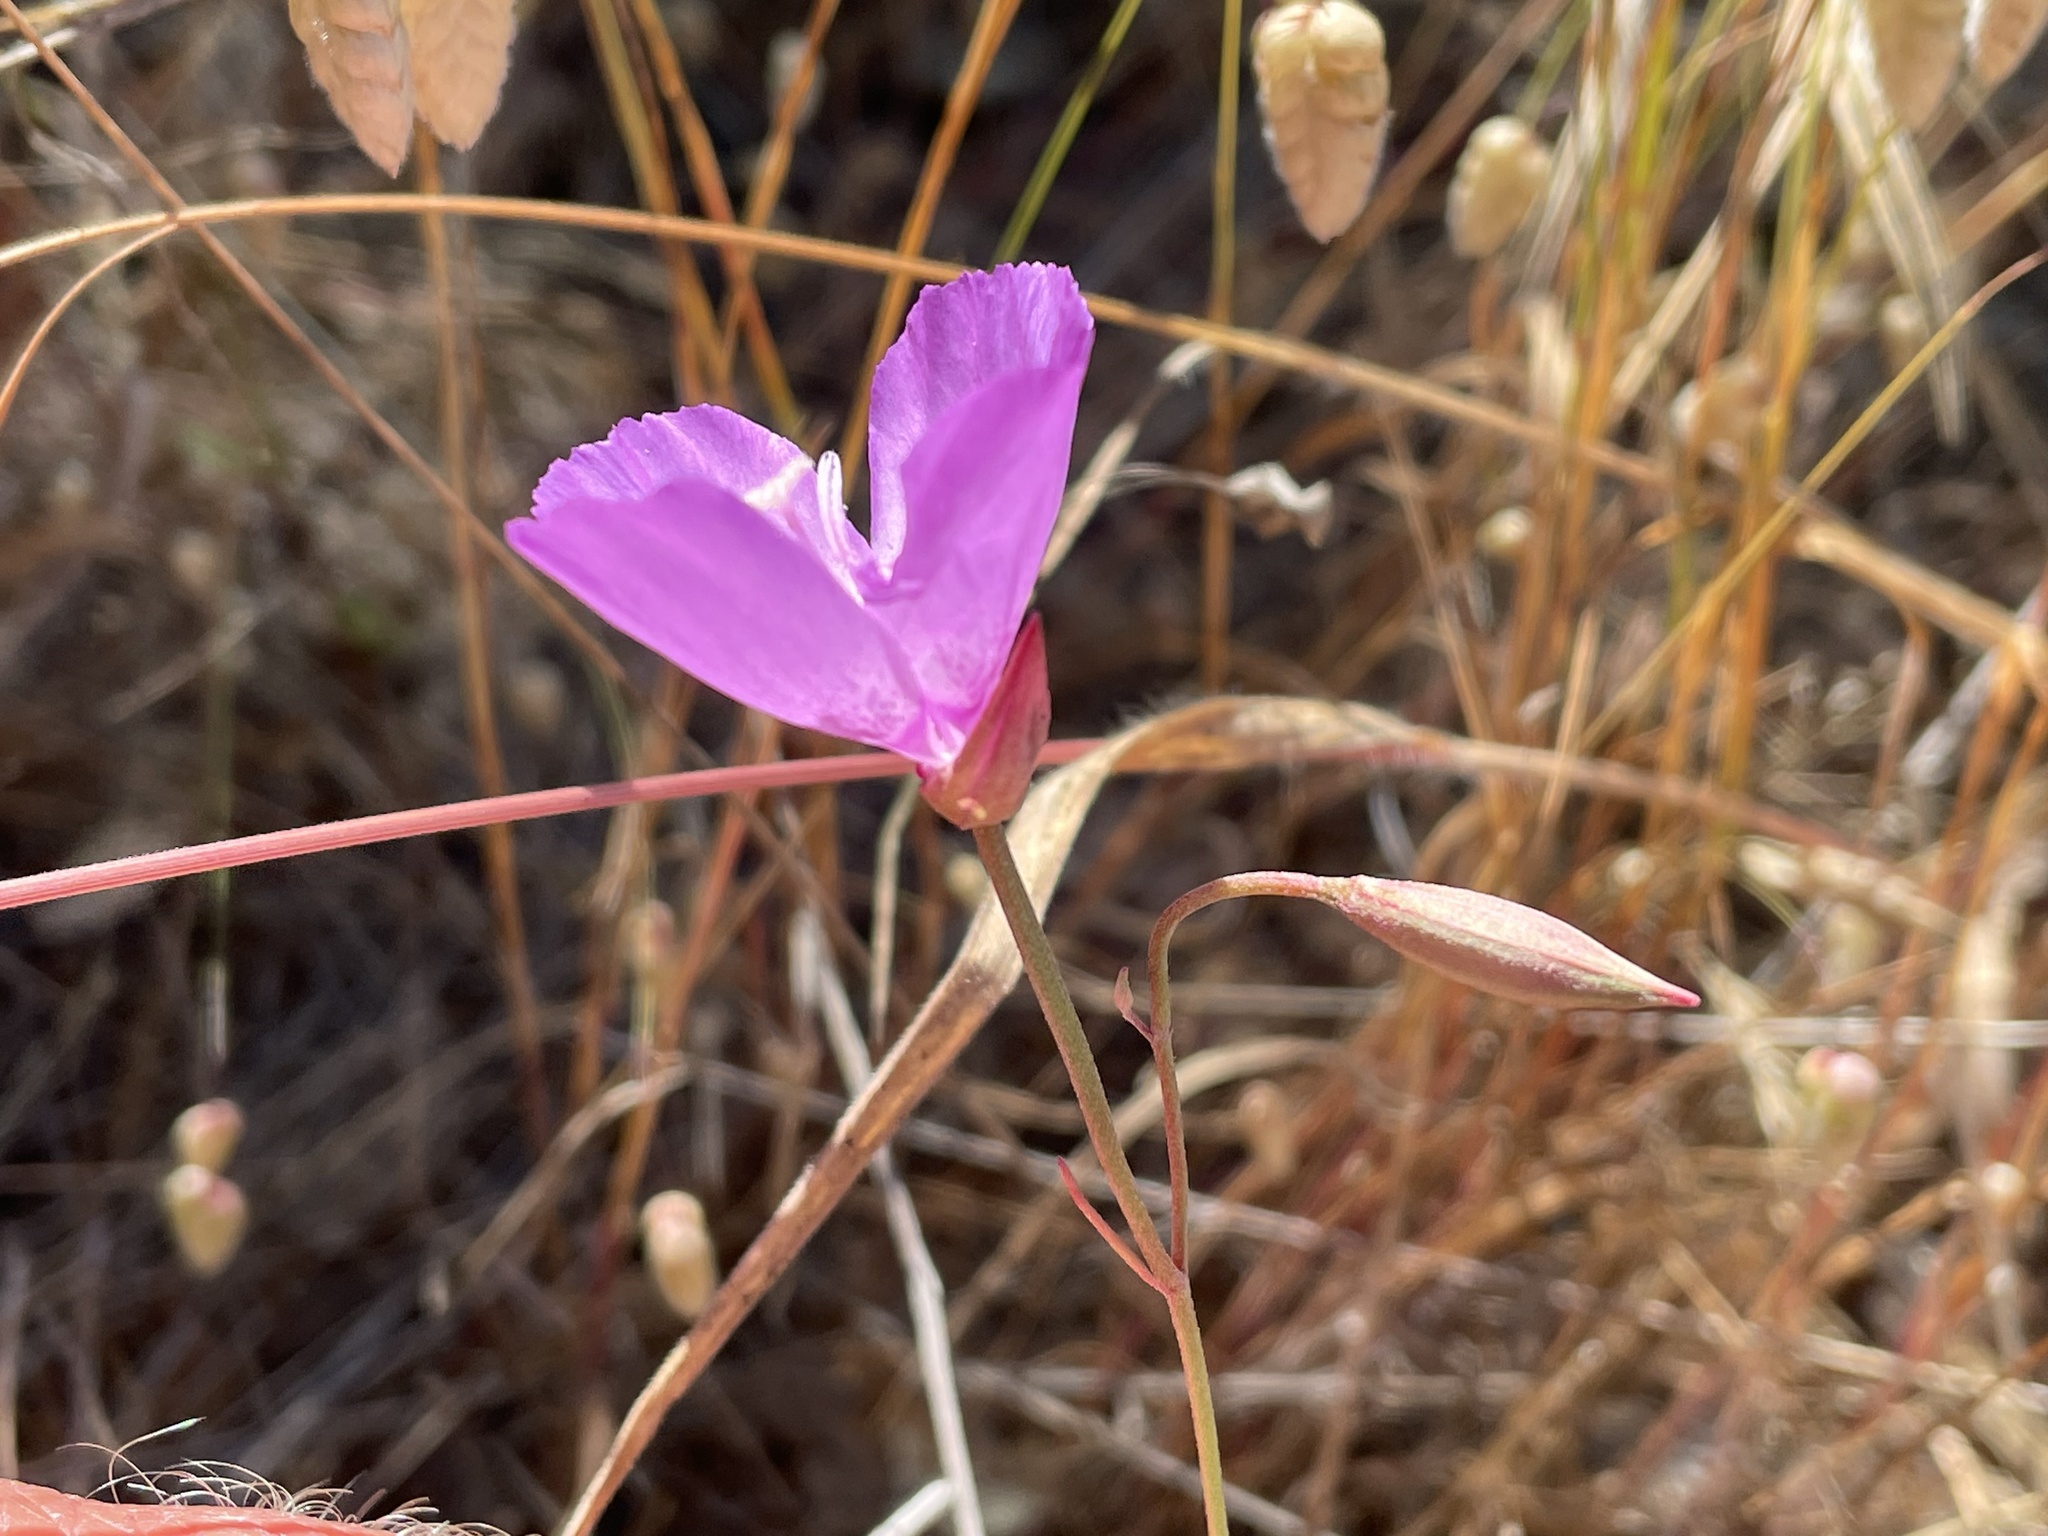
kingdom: Plantae
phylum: Tracheophyta
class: Magnoliopsida
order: Myrtales
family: Onagraceae
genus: Clarkia
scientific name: Clarkia lewisii
